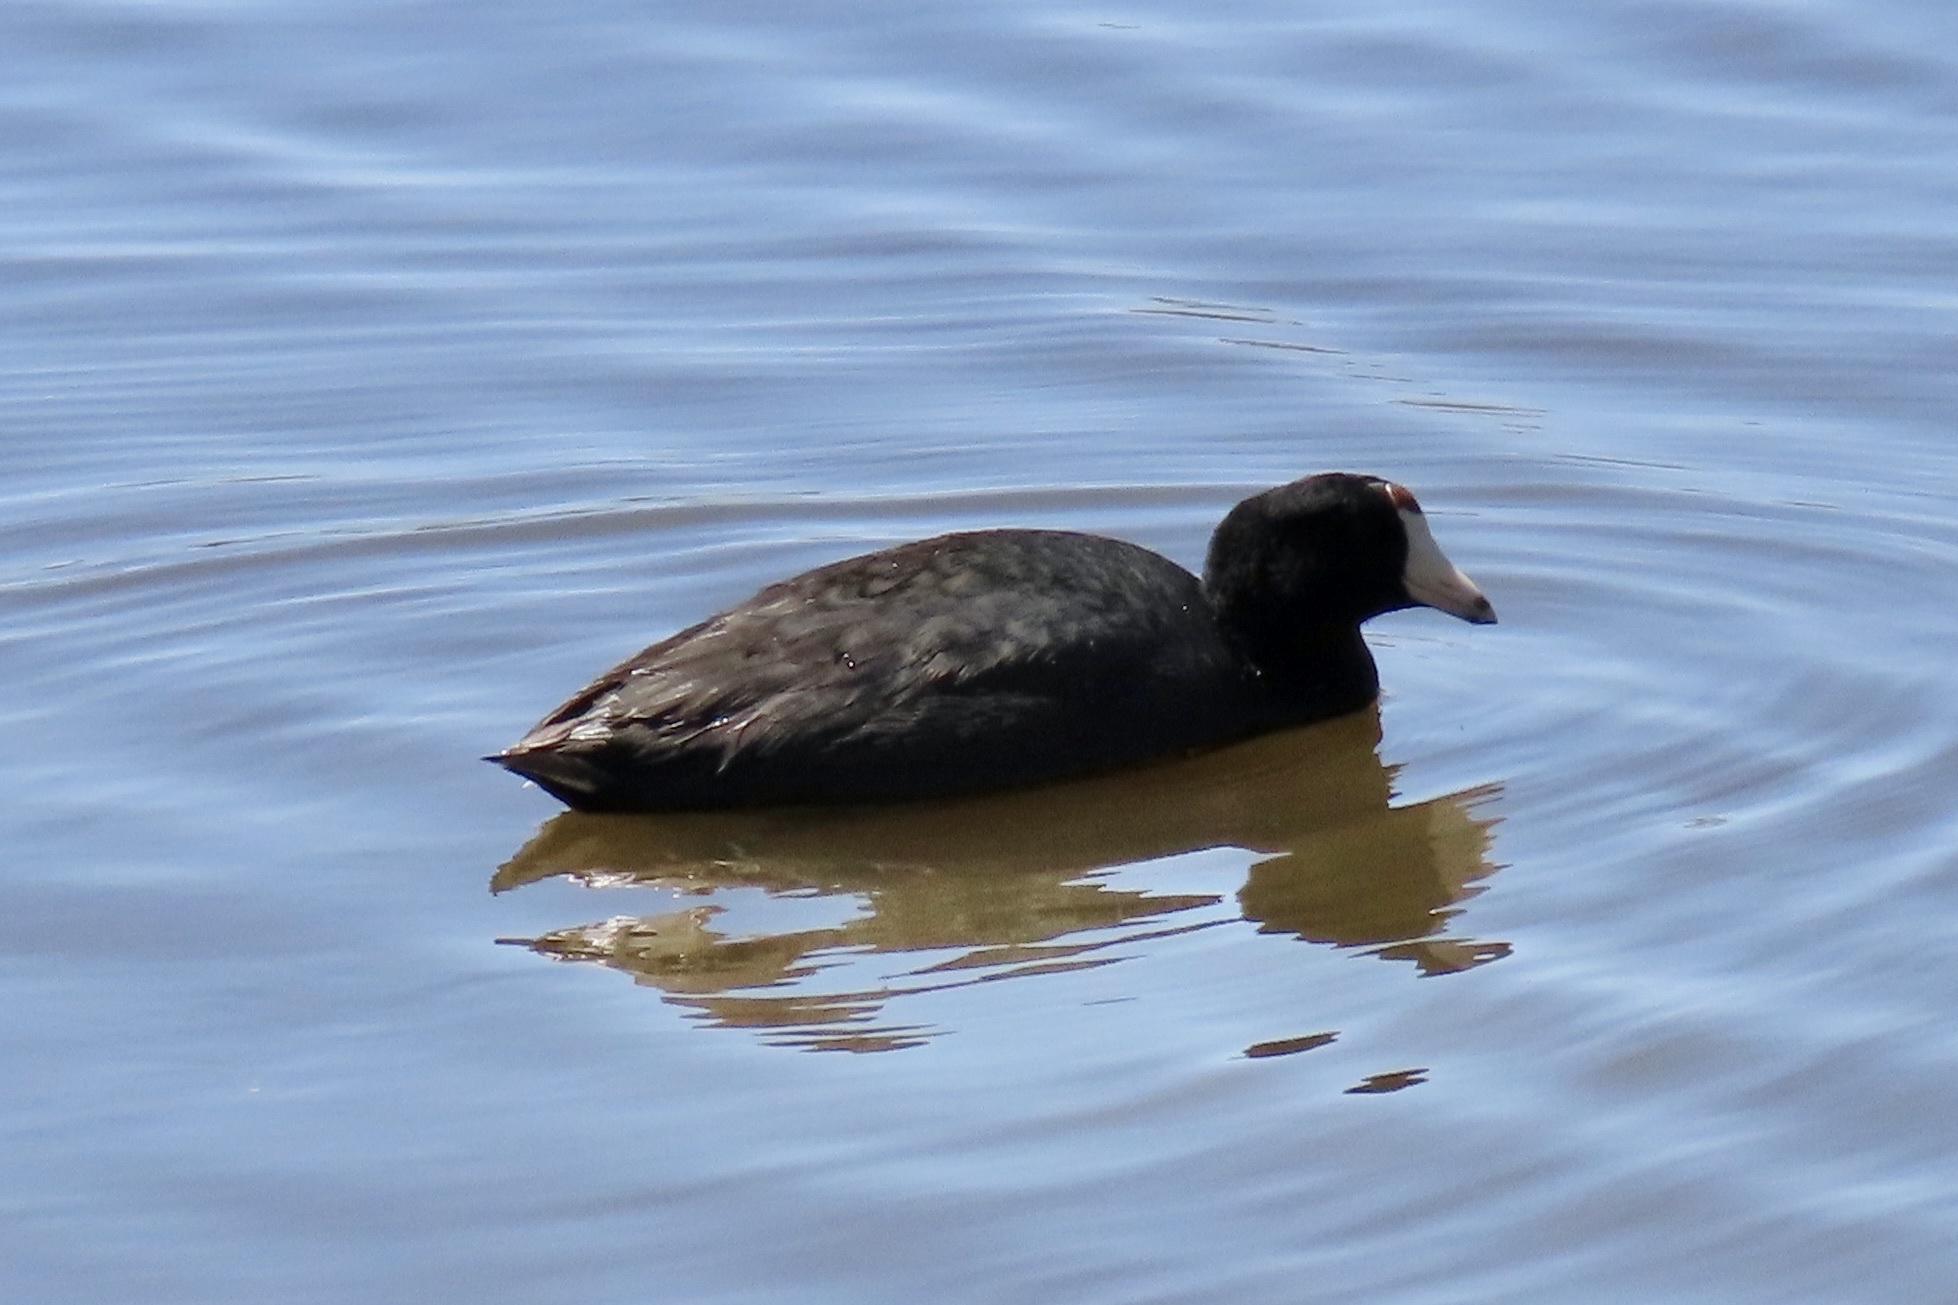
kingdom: Animalia
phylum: Chordata
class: Aves
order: Gruiformes
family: Rallidae
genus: Fulica
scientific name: Fulica americana
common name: American coot
